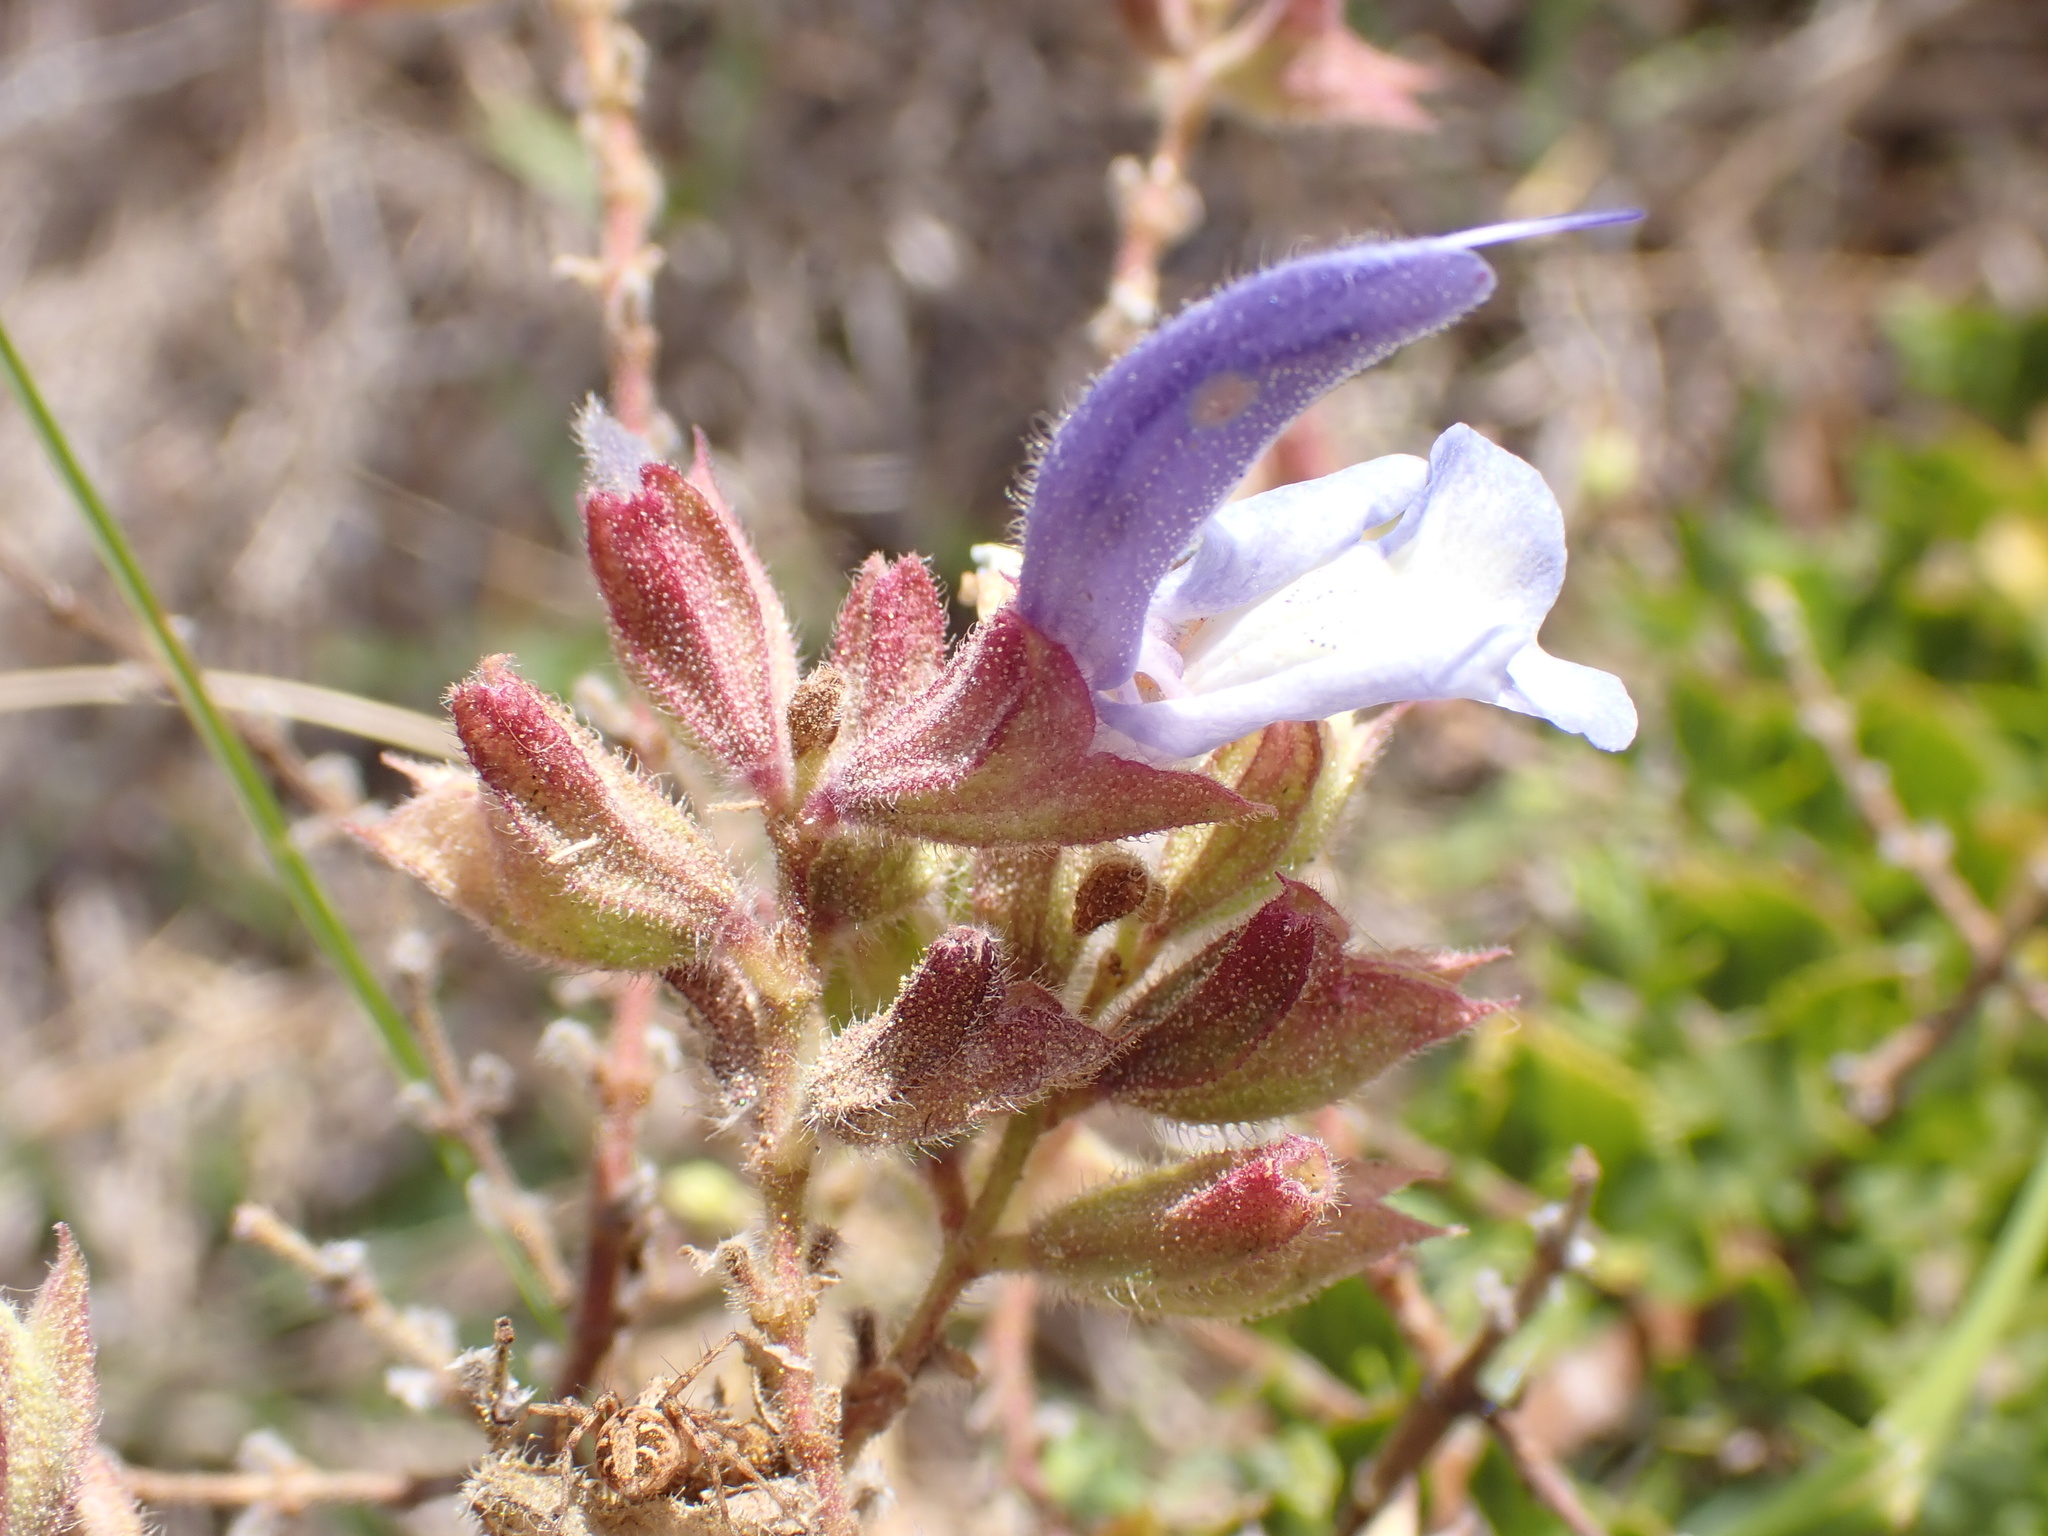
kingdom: Plantae
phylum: Tracheophyta
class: Magnoliopsida
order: Lamiales
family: Lamiaceae
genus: Salvia
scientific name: Salvia chamelaeagnea
